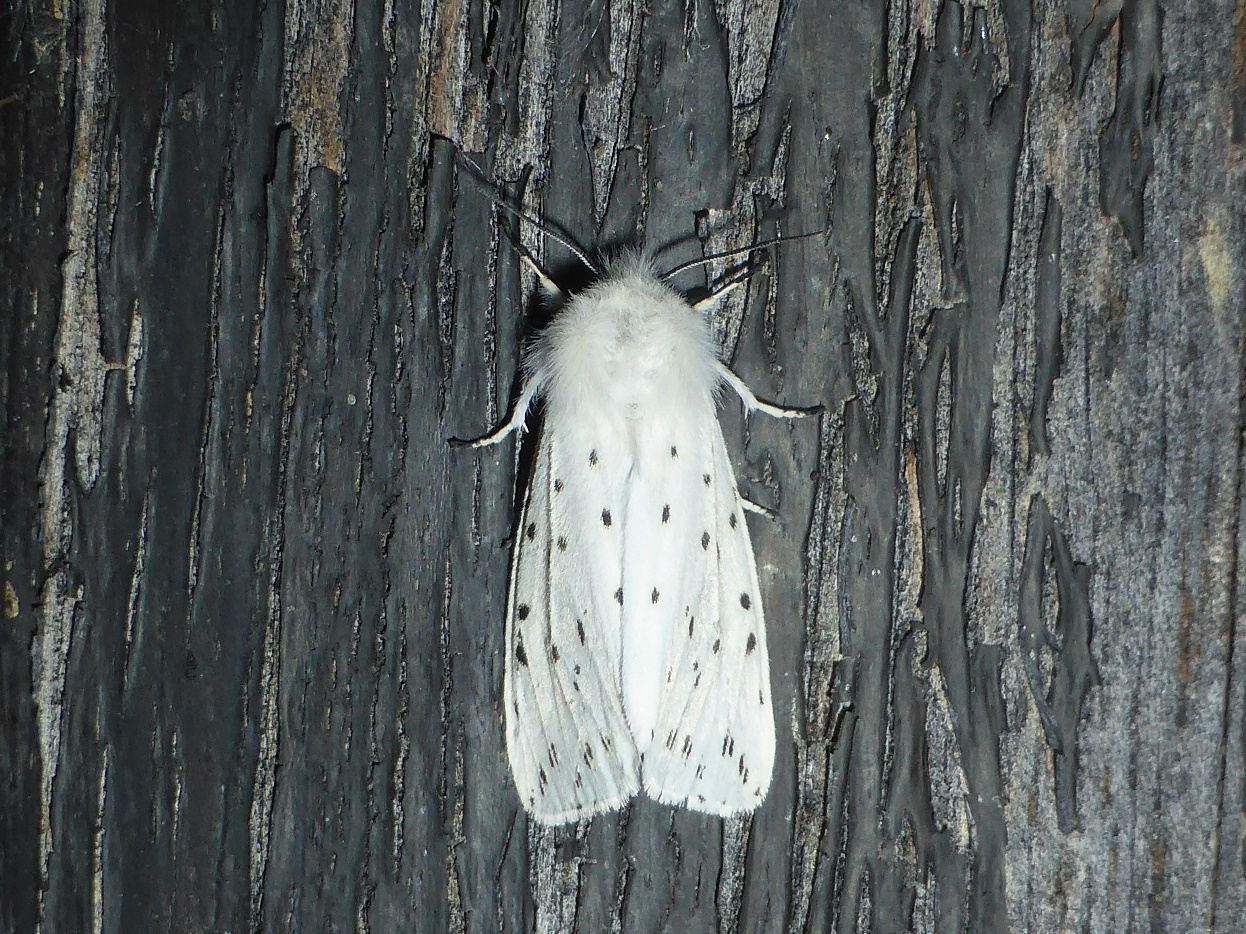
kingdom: Animalia
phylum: Arthropoda
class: Insecta
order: Lepidoptera
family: Erebidae
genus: Spilosoma
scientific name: Spilosoma lubricipeda
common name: White ermine
